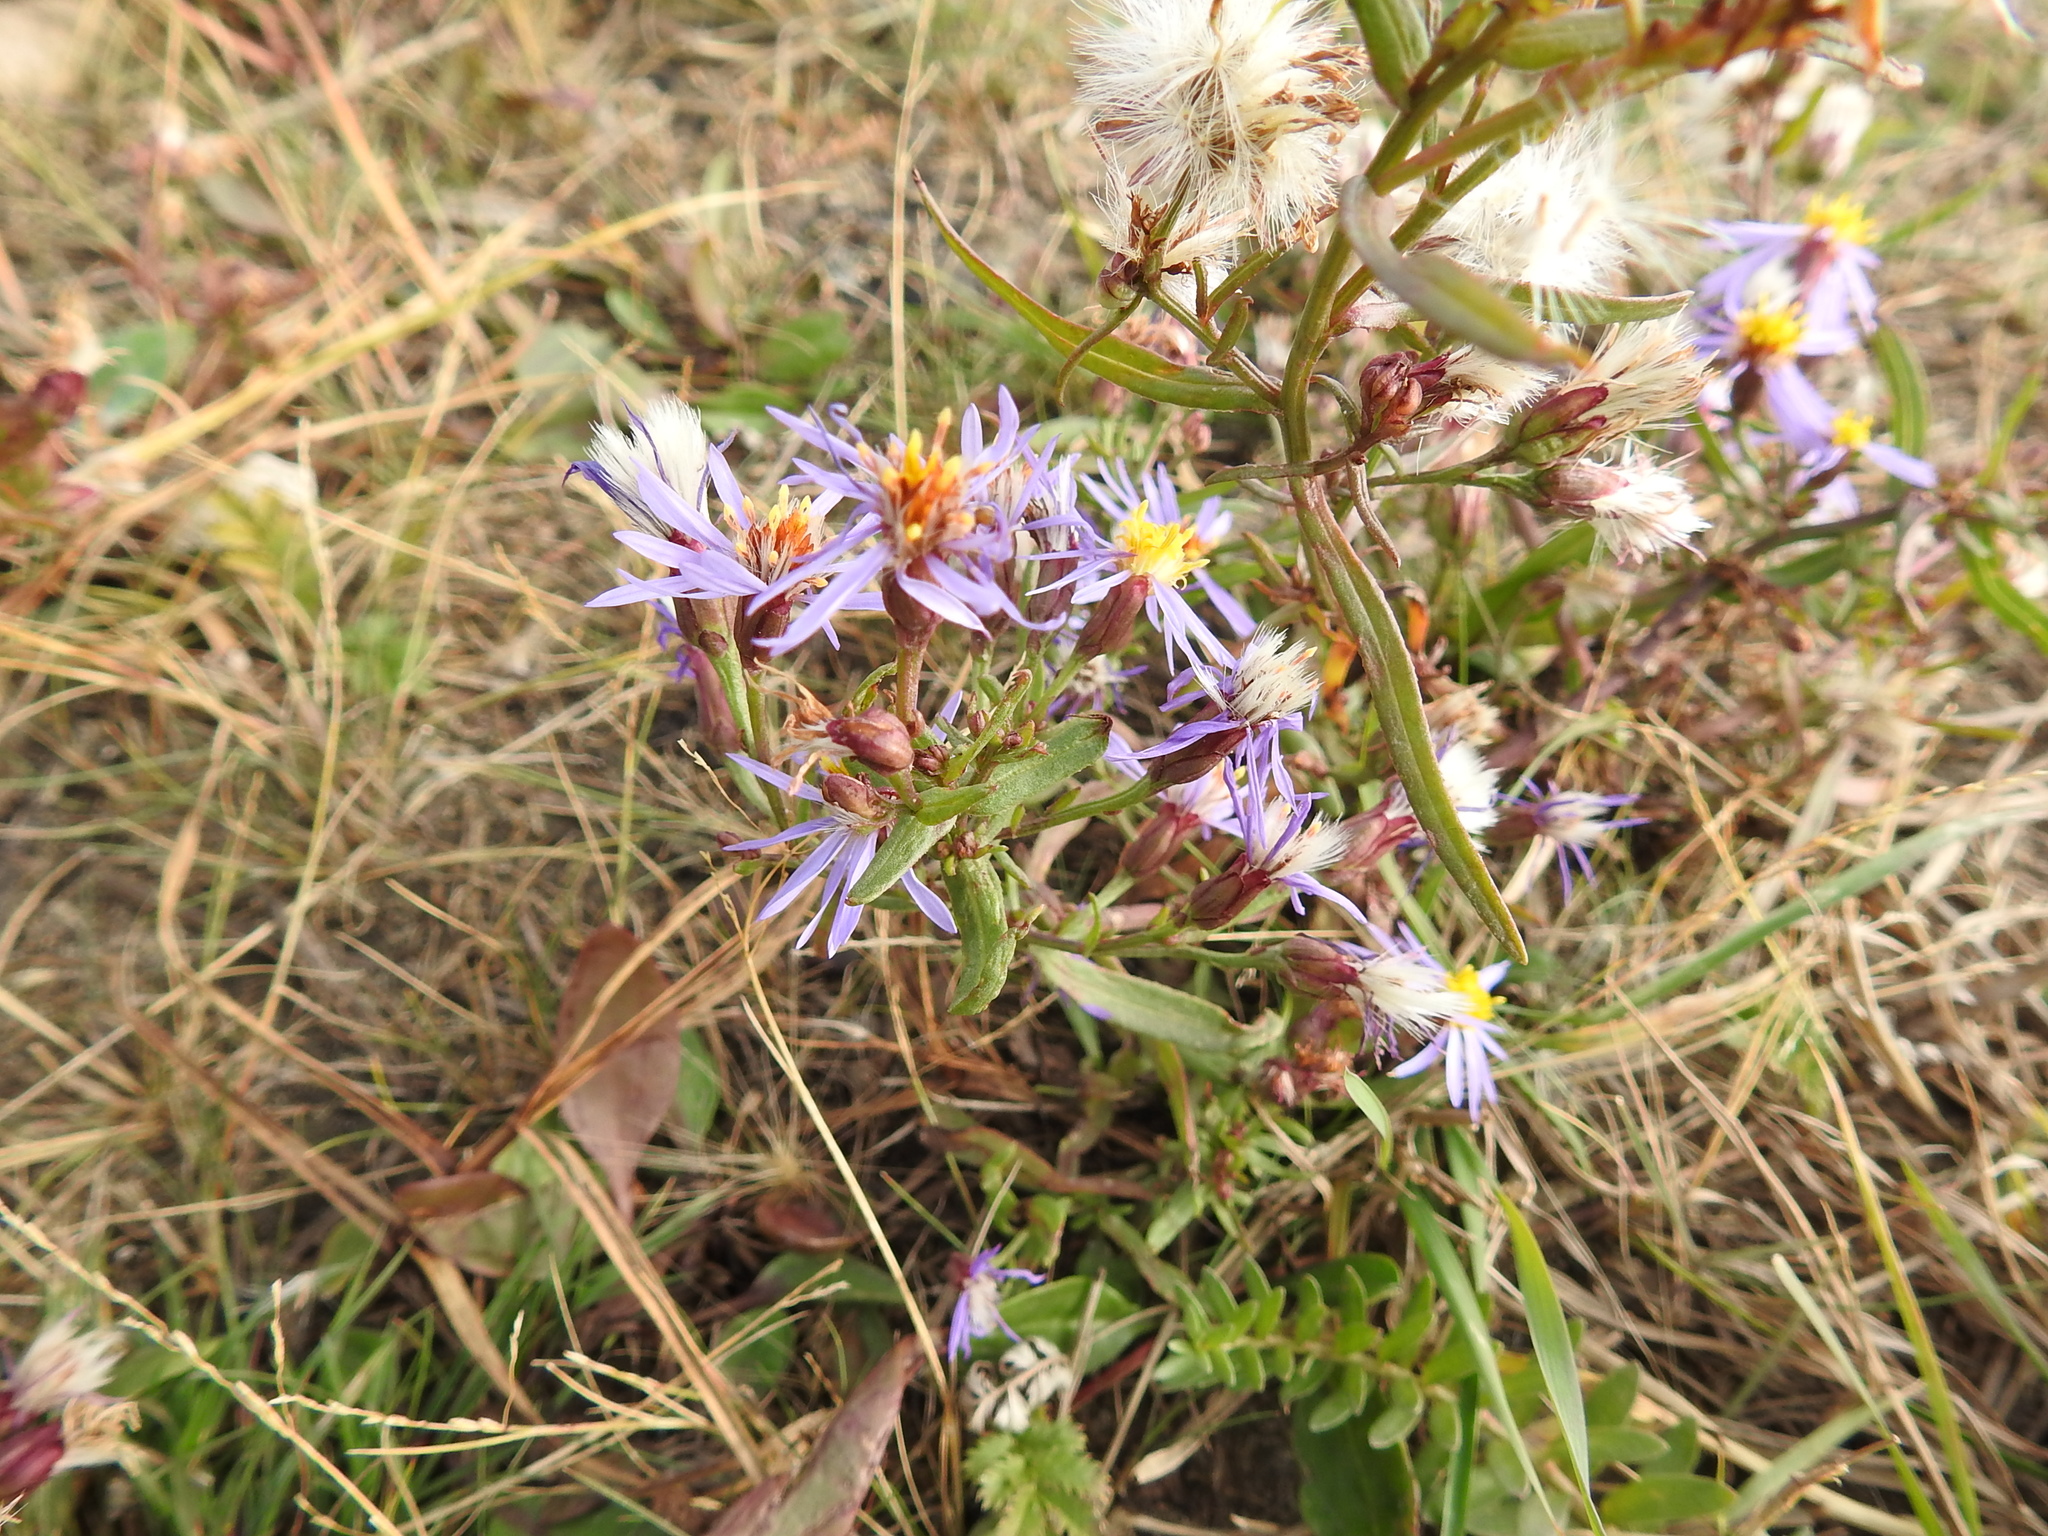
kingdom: Plantae
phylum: Tracheophyta
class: Magnoliopsida
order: Asterales
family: Asteraceae
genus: Tripolium
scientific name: Tripolium pannonicum
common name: Sea aster
